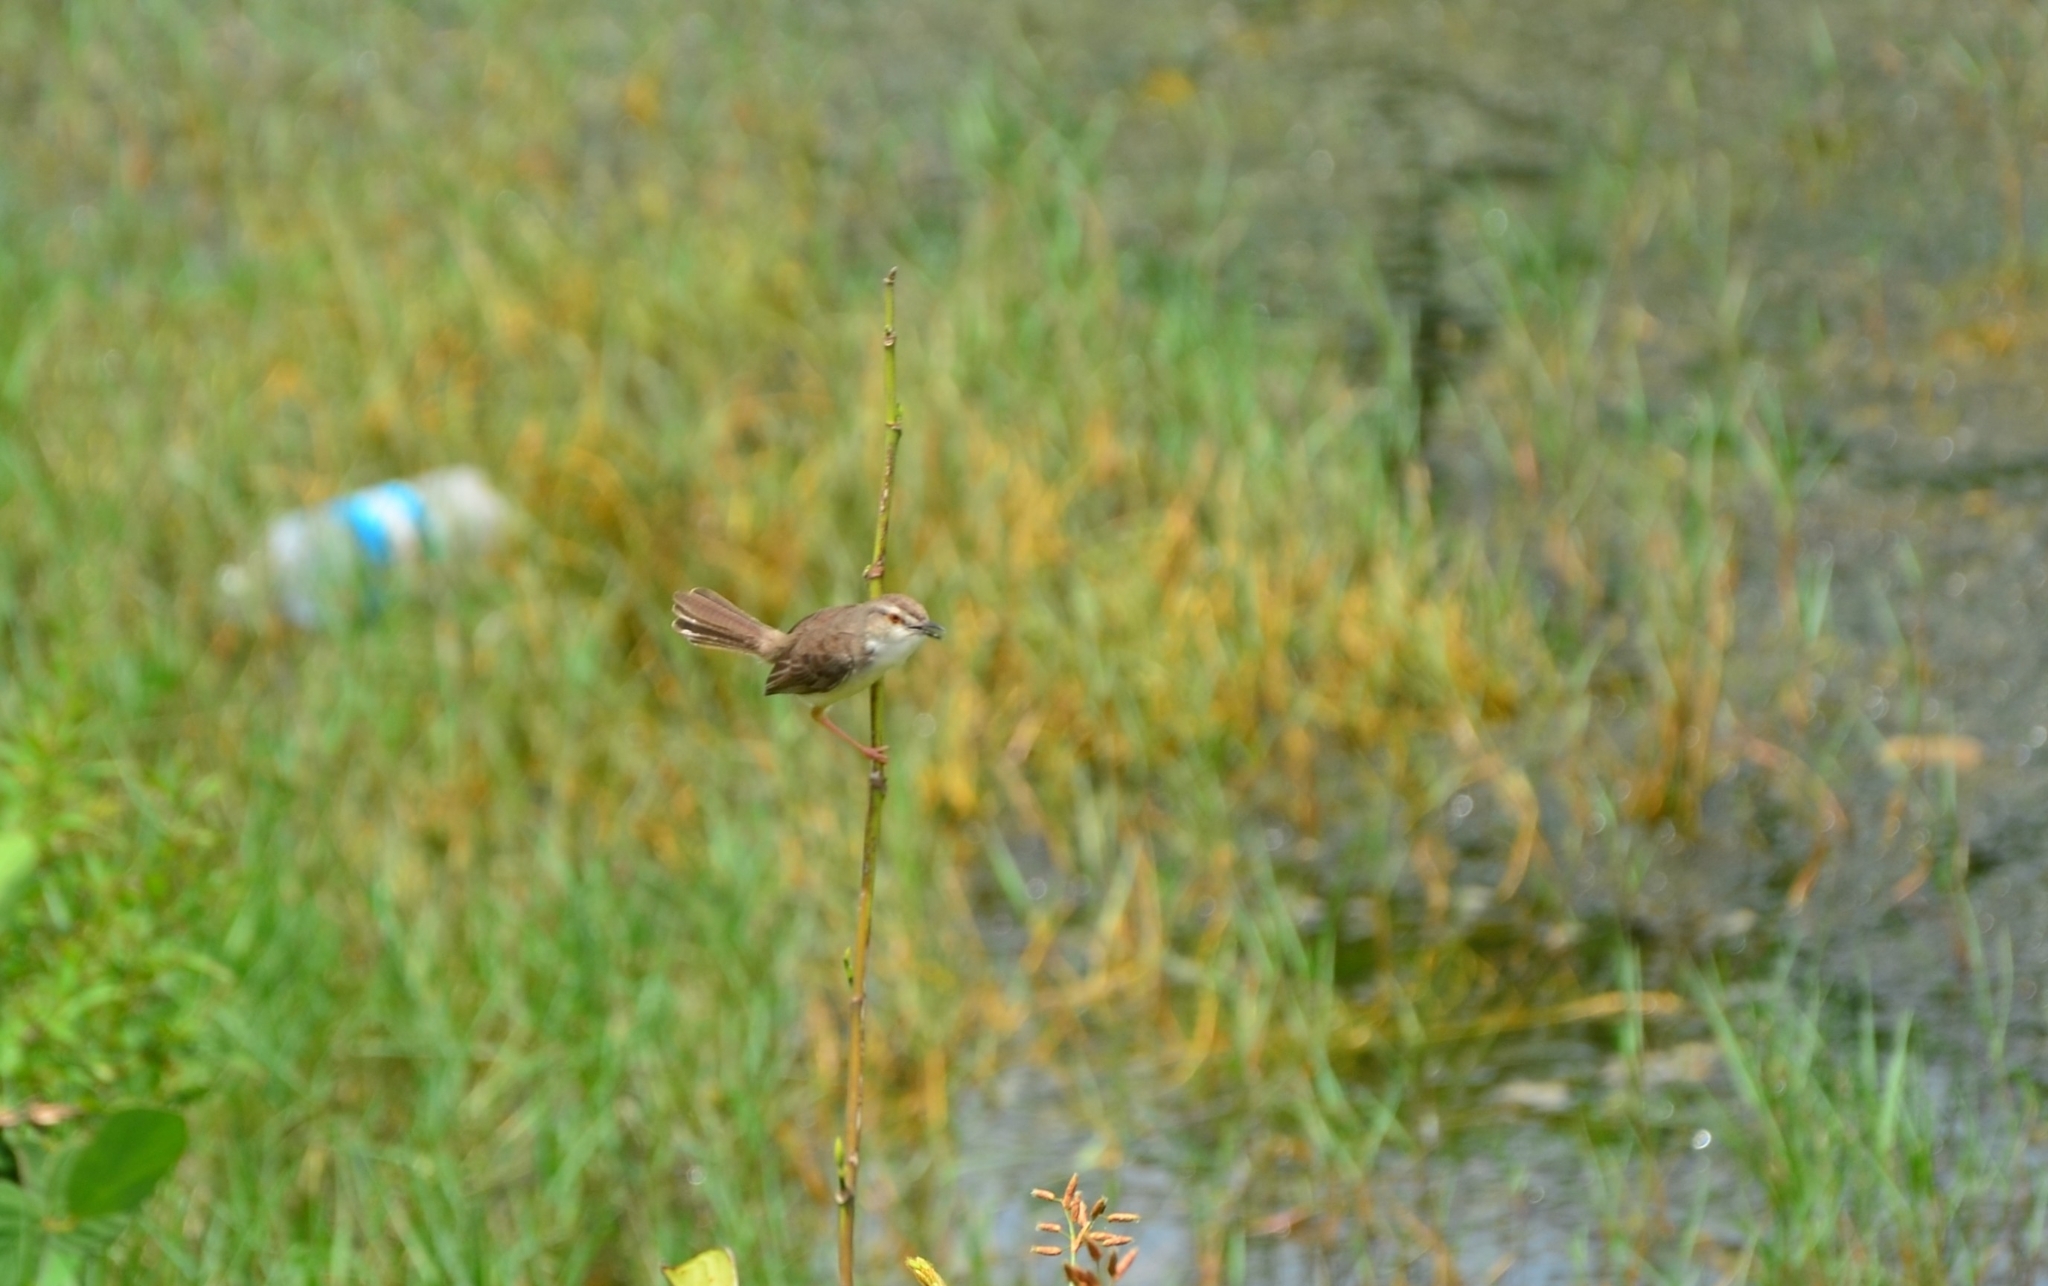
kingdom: Animalia
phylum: Chordata
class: Aves
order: Passeriformes
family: Cisticolidae
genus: Prinia
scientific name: Prinia inornata
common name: Plain prinia
